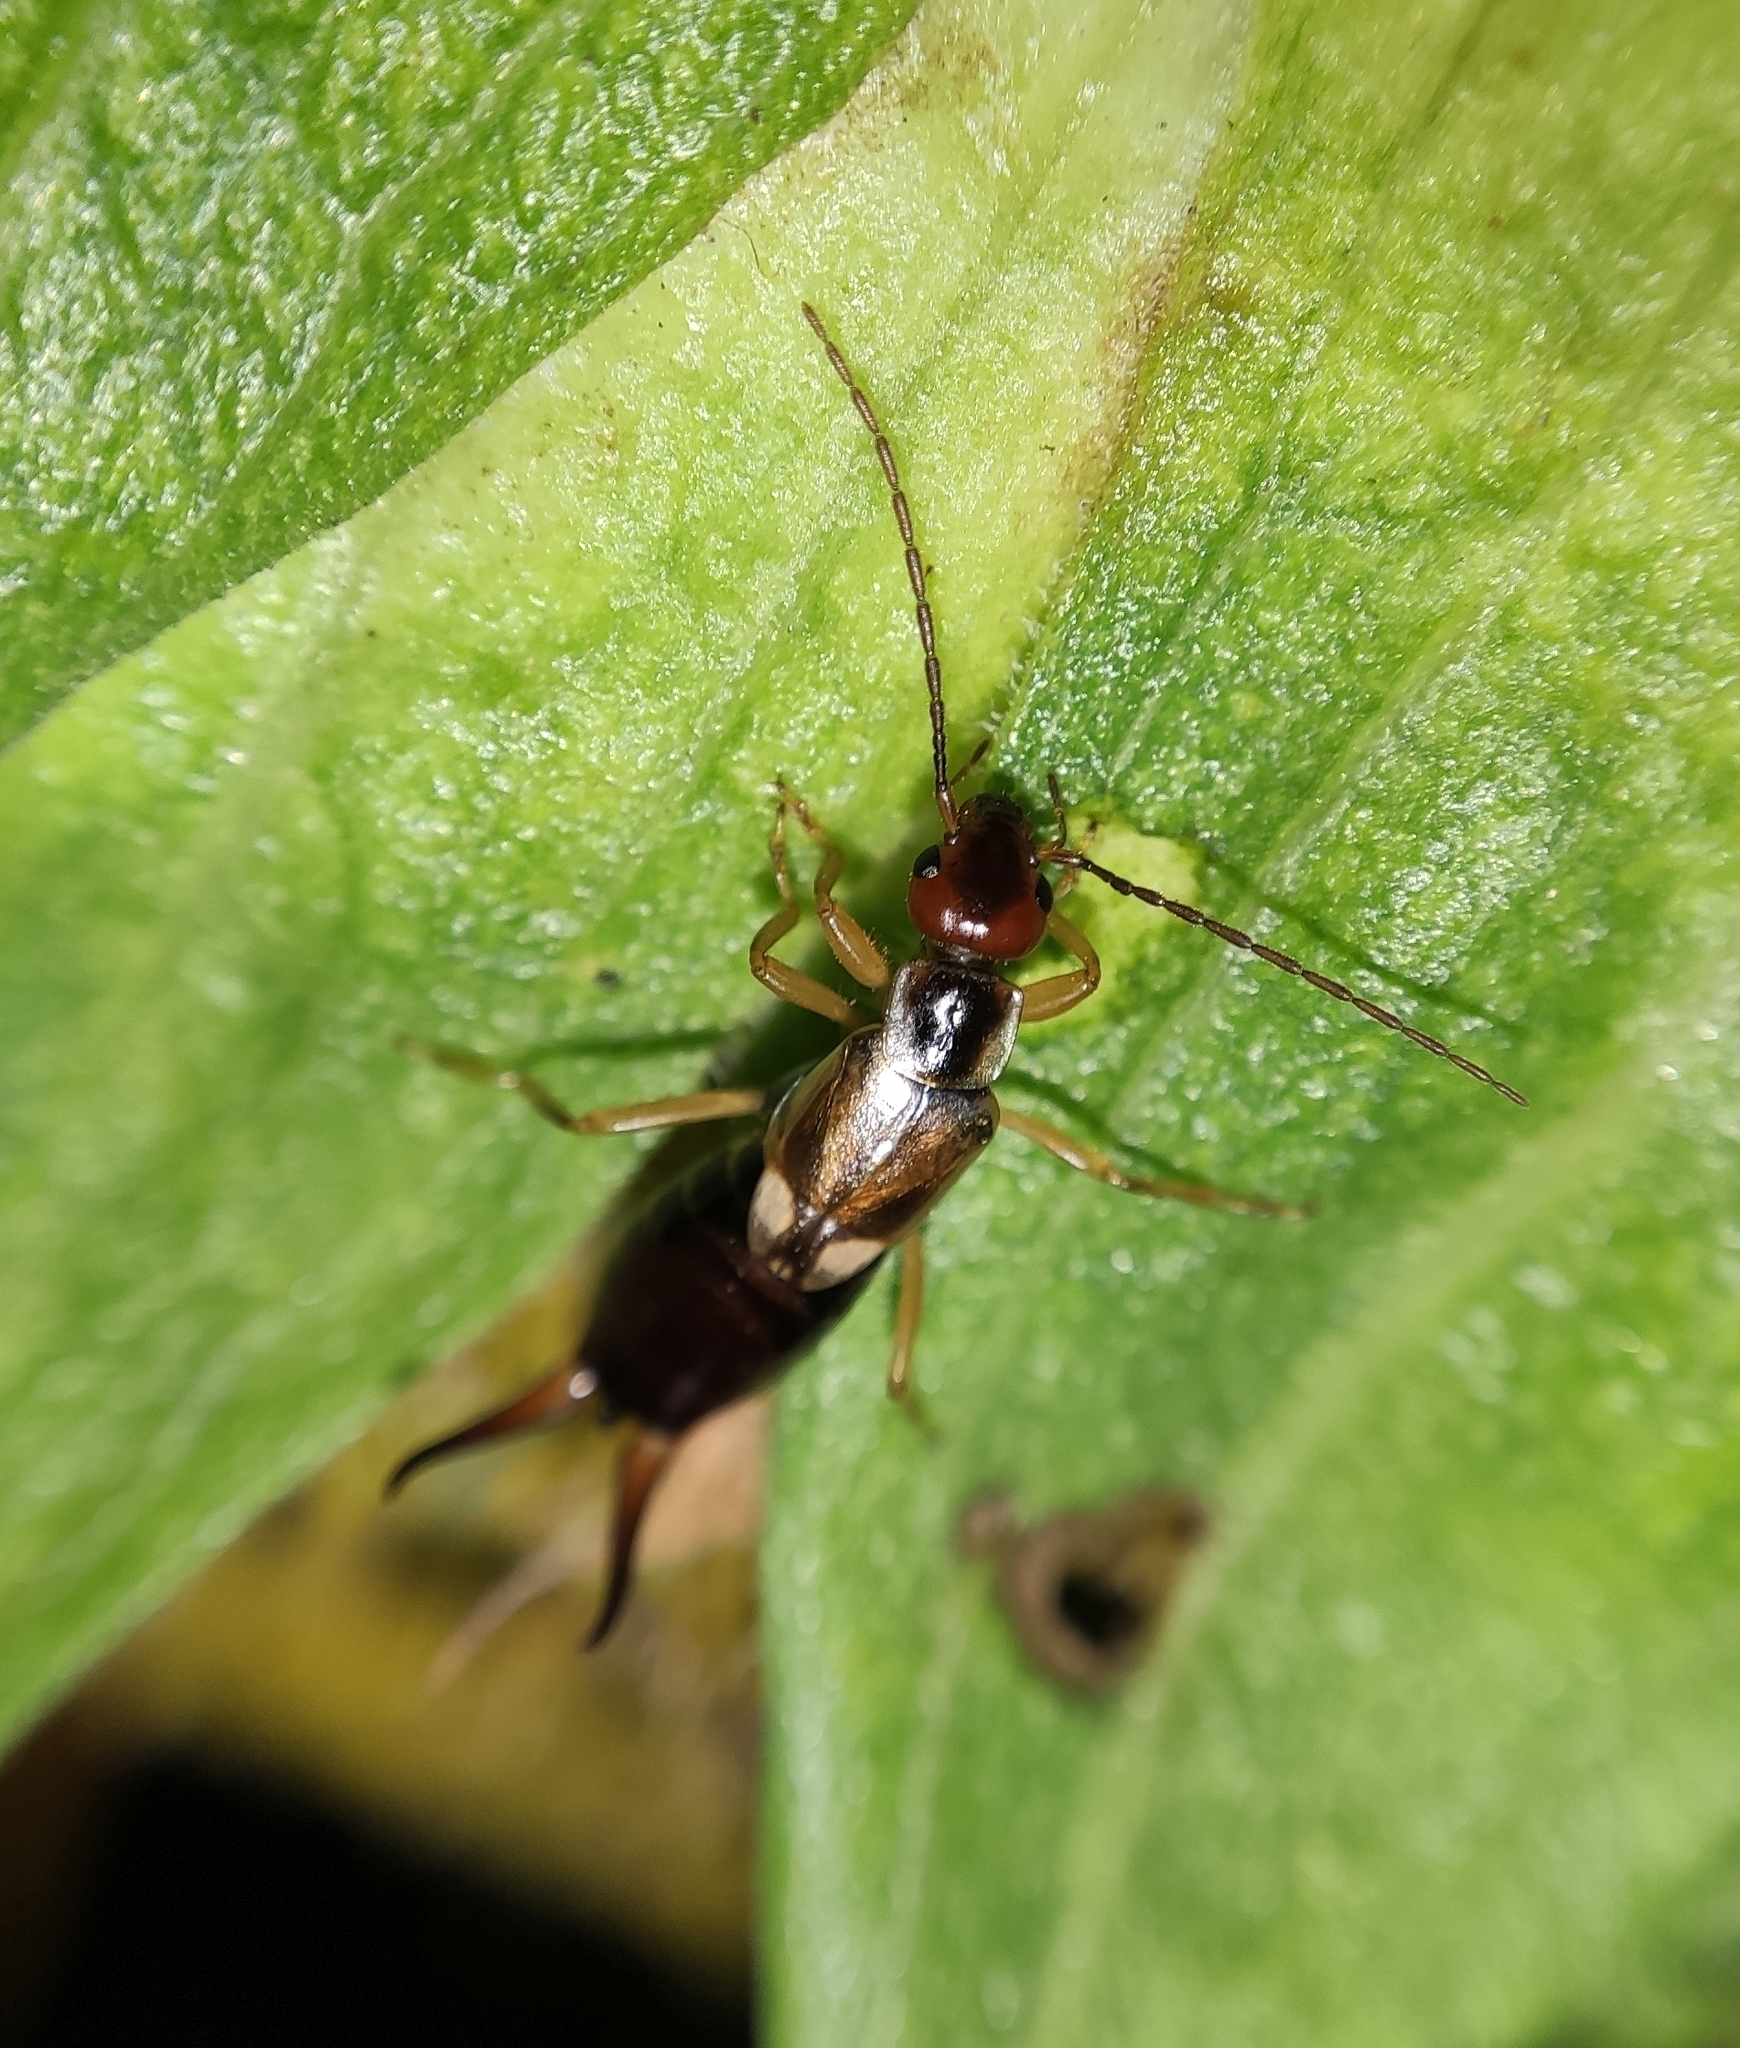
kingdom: Animalia
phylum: Arthropoda
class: Insecta
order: Dermaptera
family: Forficulidae
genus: Forficula
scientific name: Forficula
